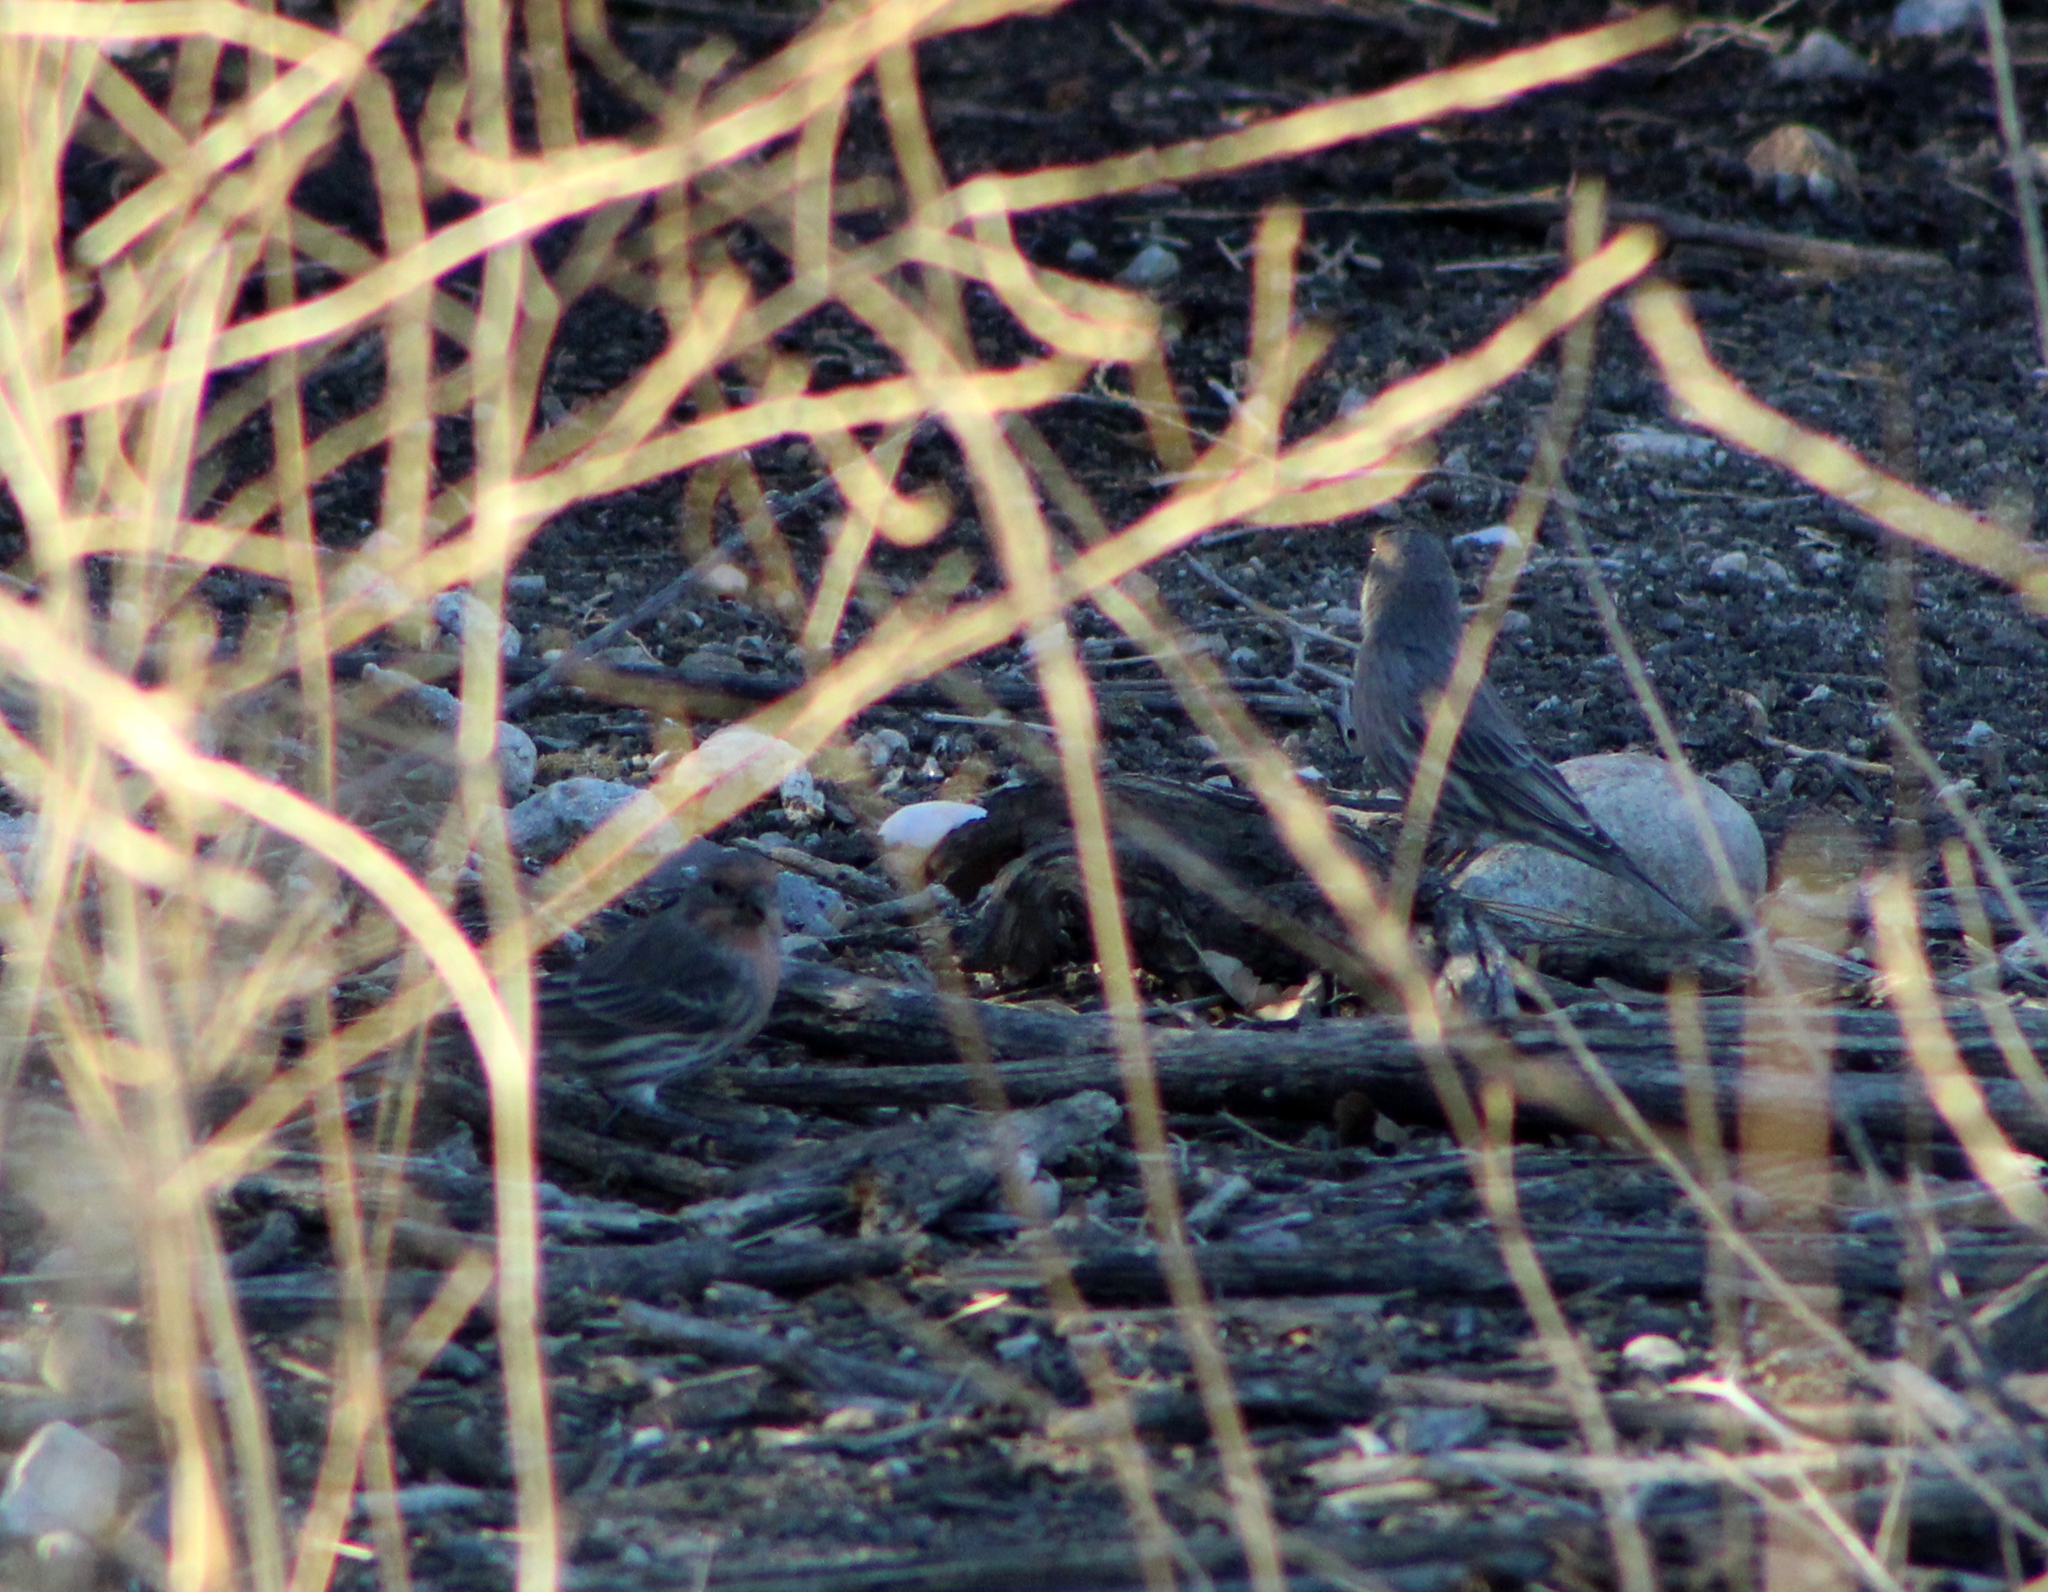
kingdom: Animalia
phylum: Chordata
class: Aves
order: Passeriformes
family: Fringillidae
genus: Haemorhous
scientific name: Haemorhous mexicanus
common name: House finch
